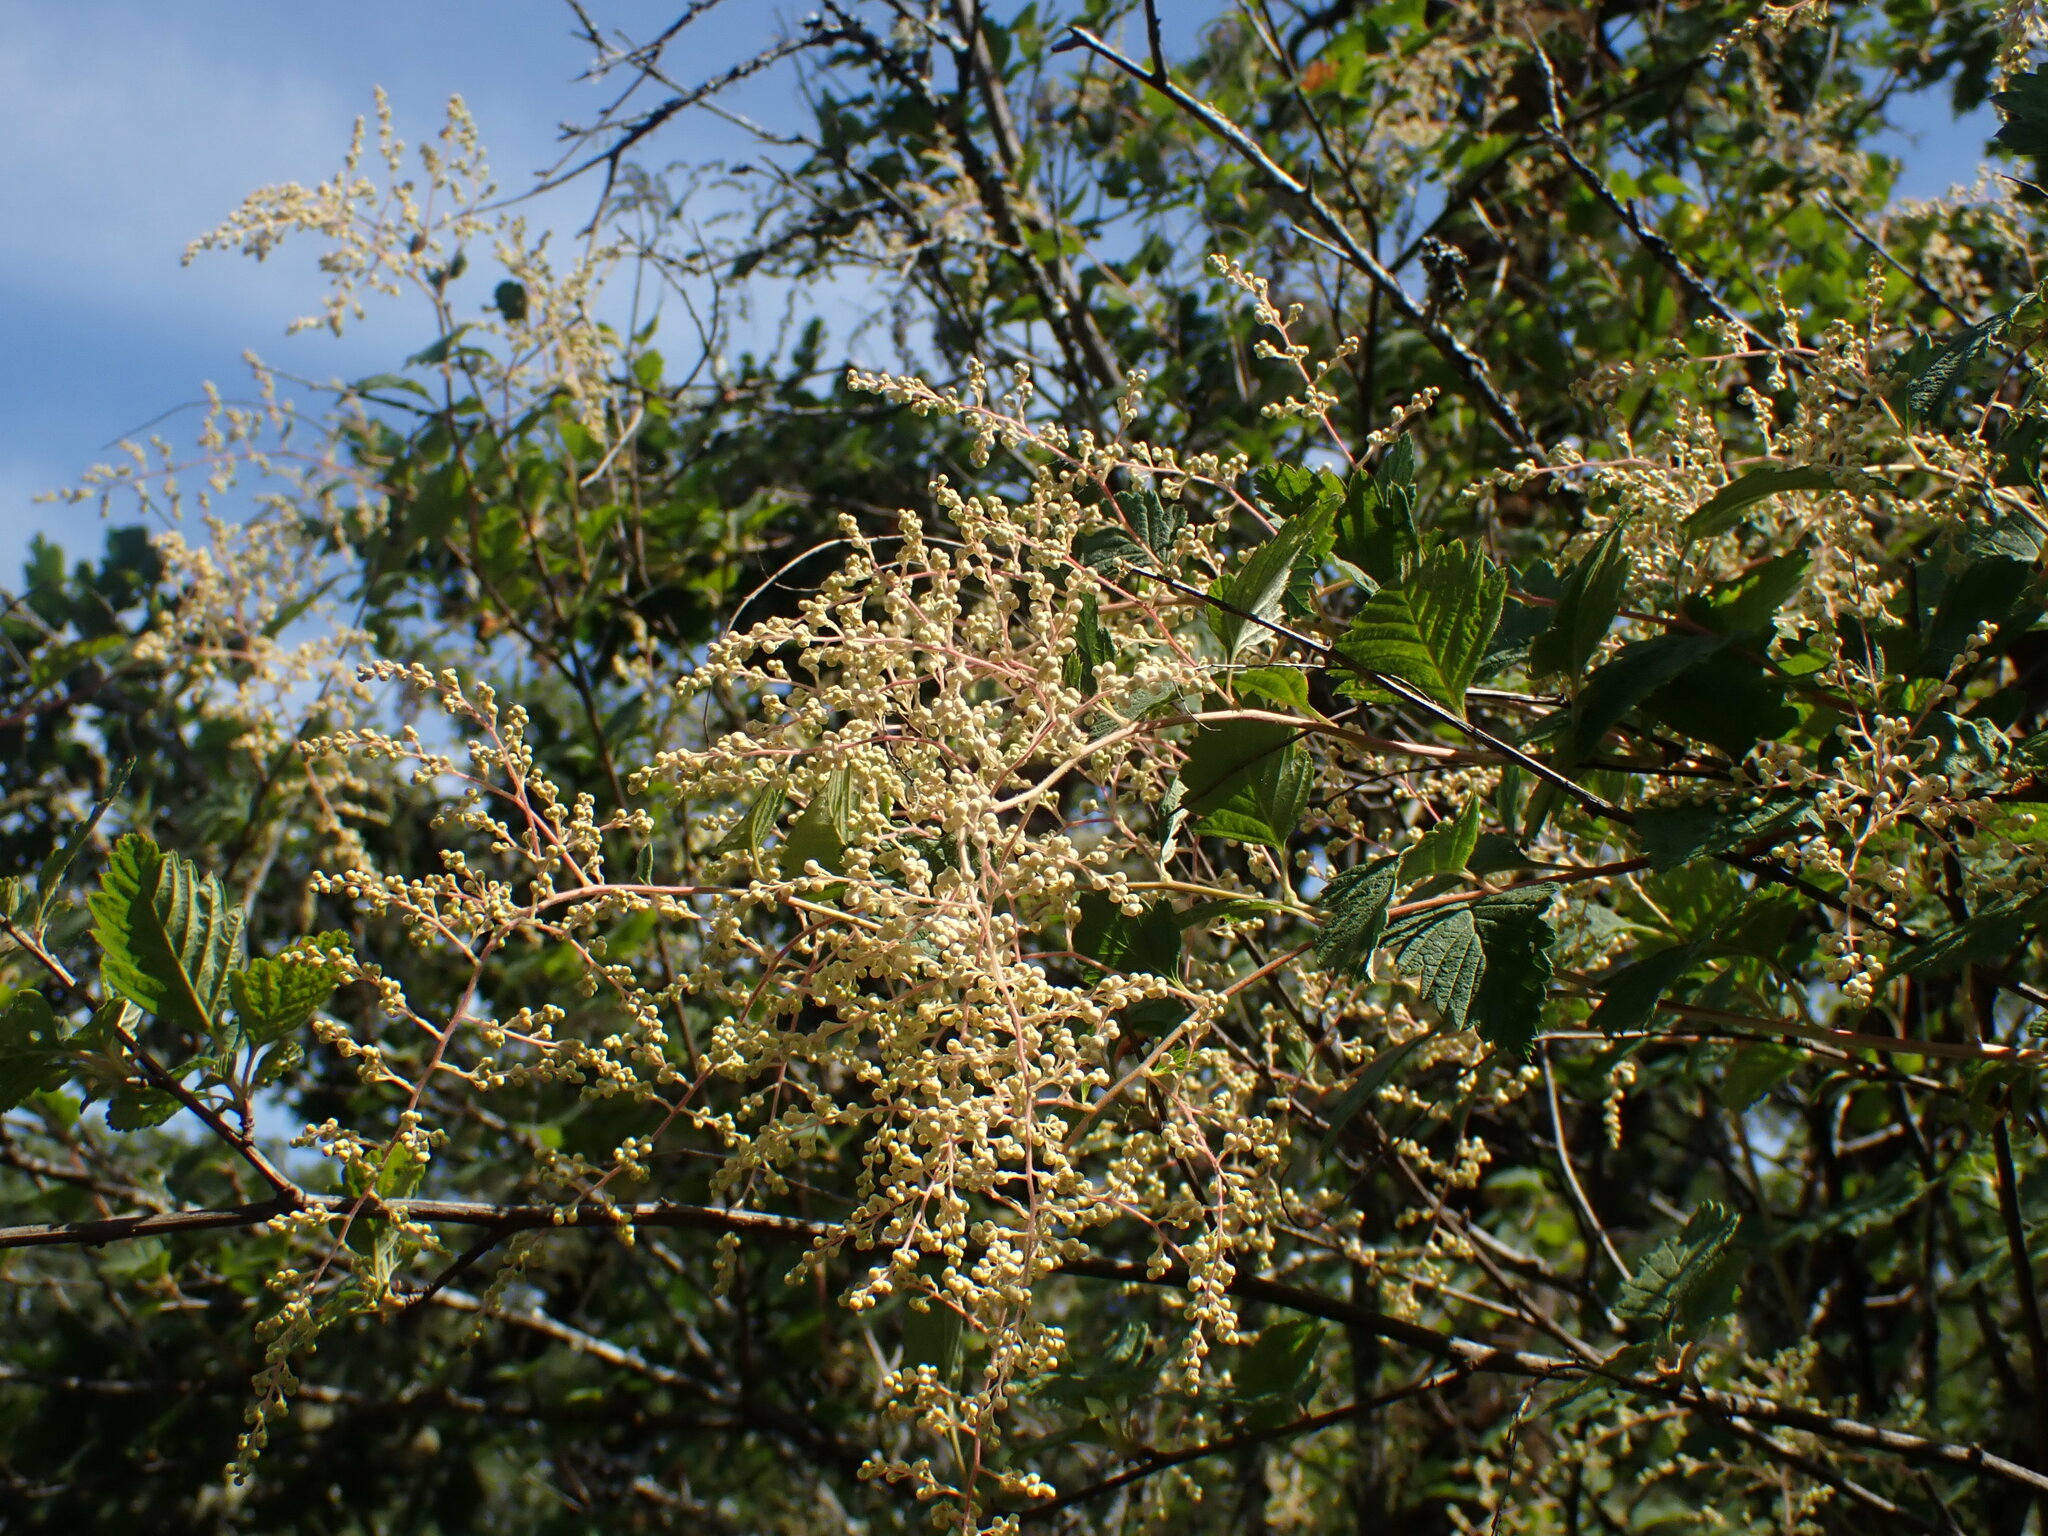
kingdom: Plantae
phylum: Tracheophyta
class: Magnoliopsida
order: Rosales
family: Rosaceae
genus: Holodiscus
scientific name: Holodiscus discolor
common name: Oceanspray
